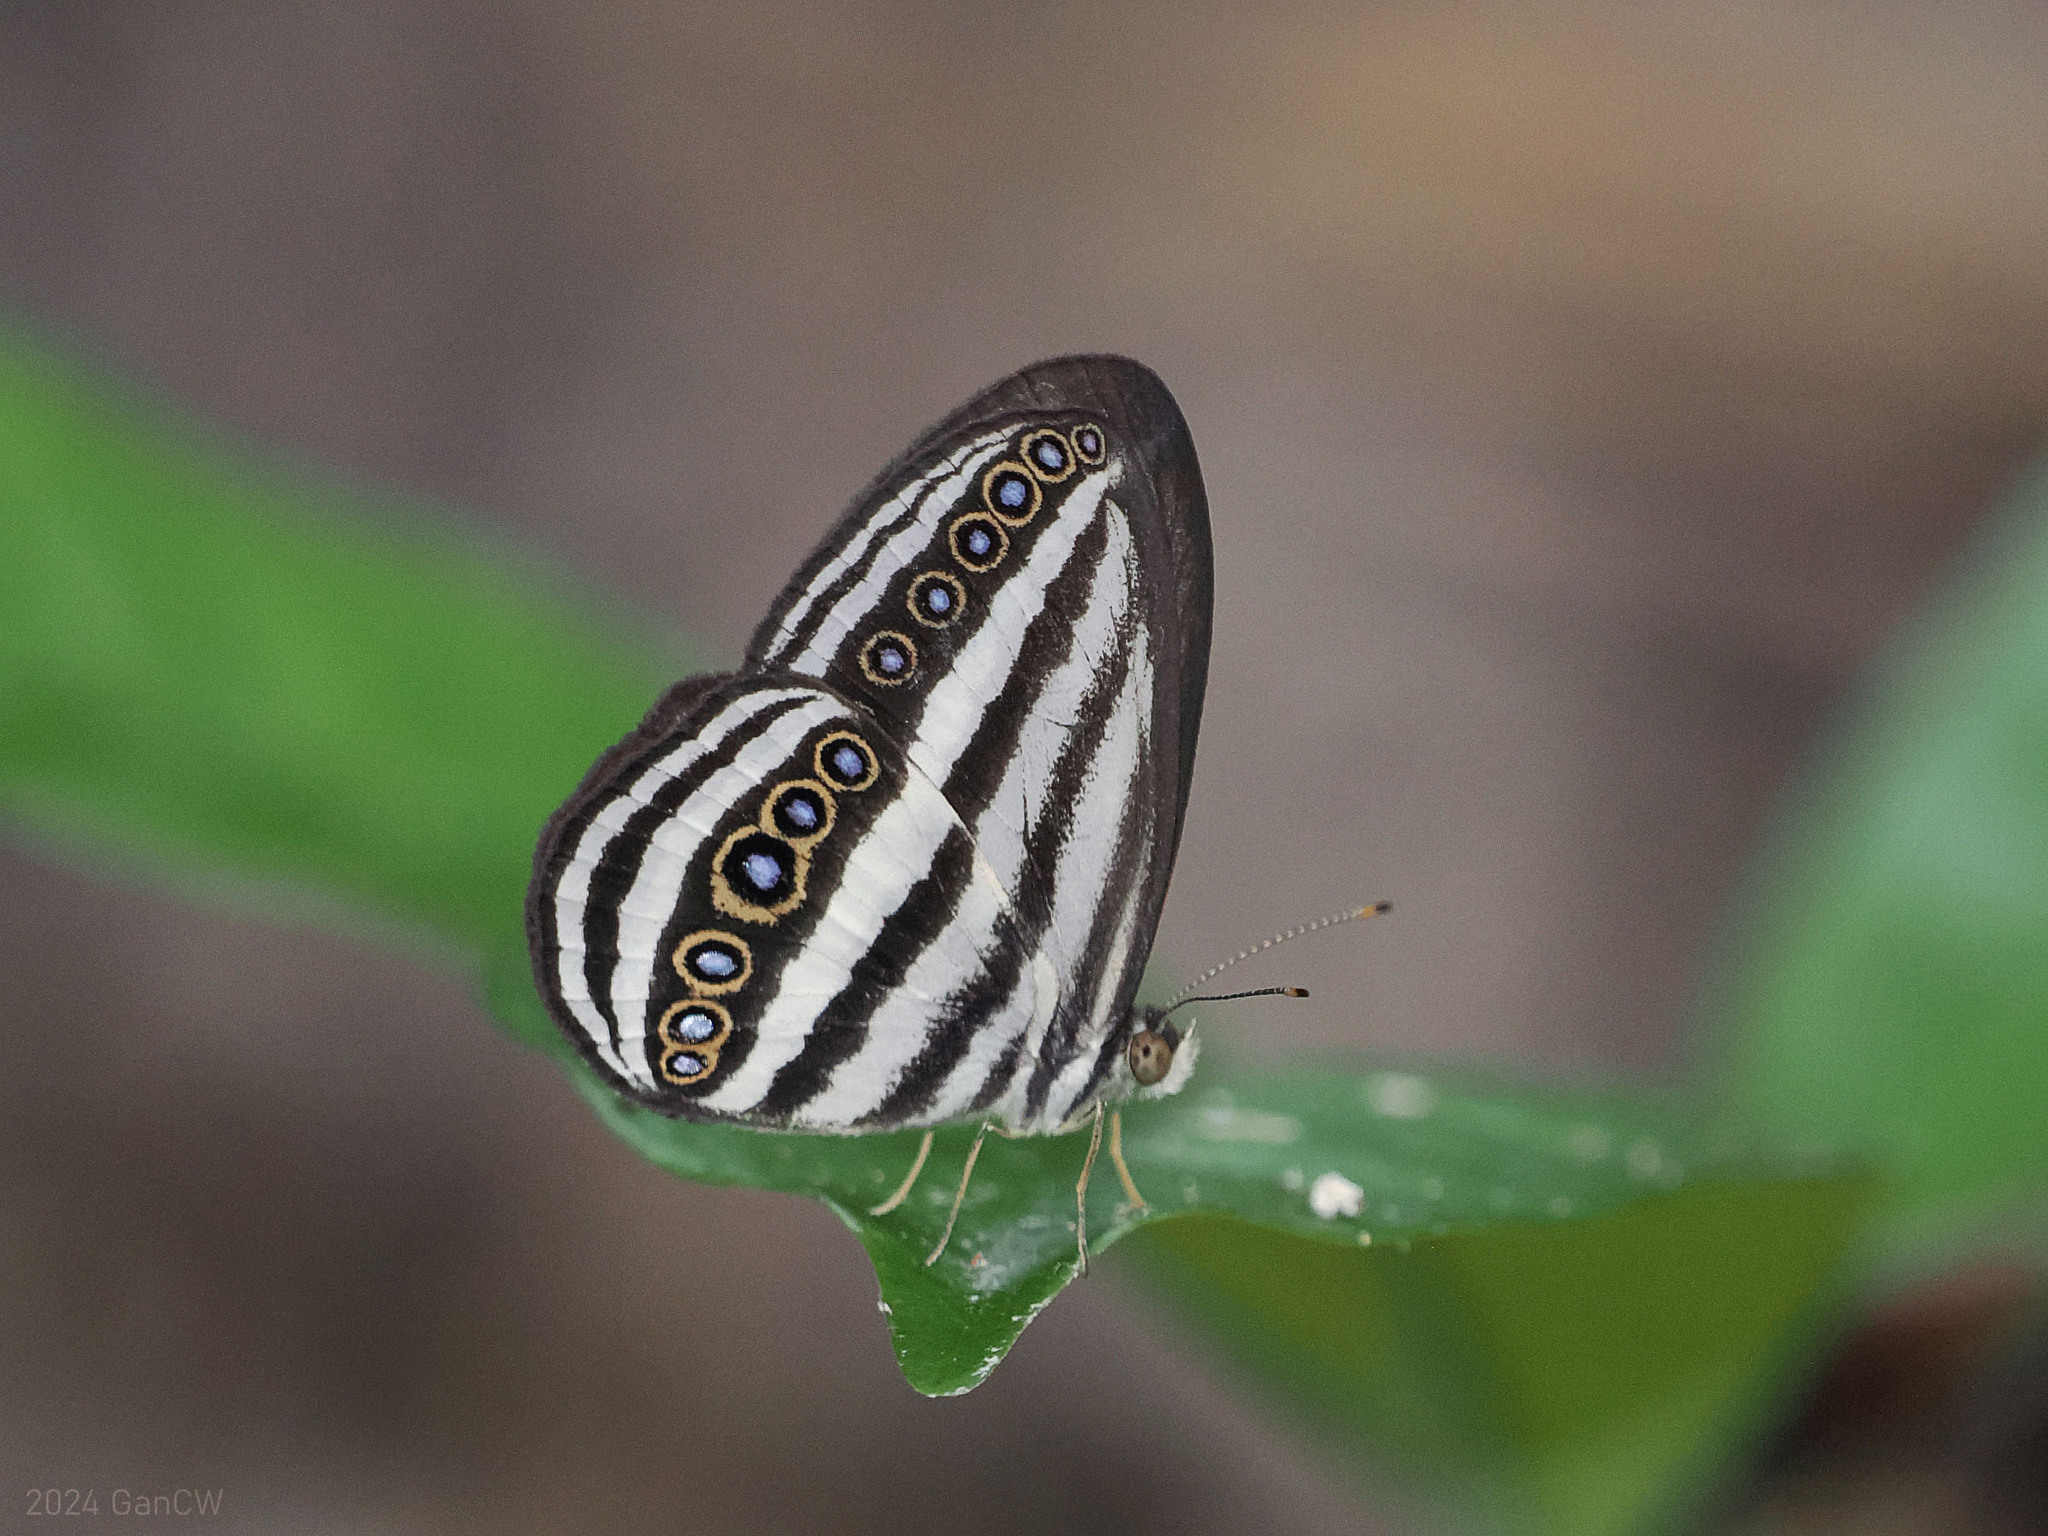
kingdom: Animalia
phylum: Arthropoda
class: Insecta
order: Lepidoptera
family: Nymphalidae
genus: Ragadia
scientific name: Ragadia crisilda
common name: White-striped ringlet
